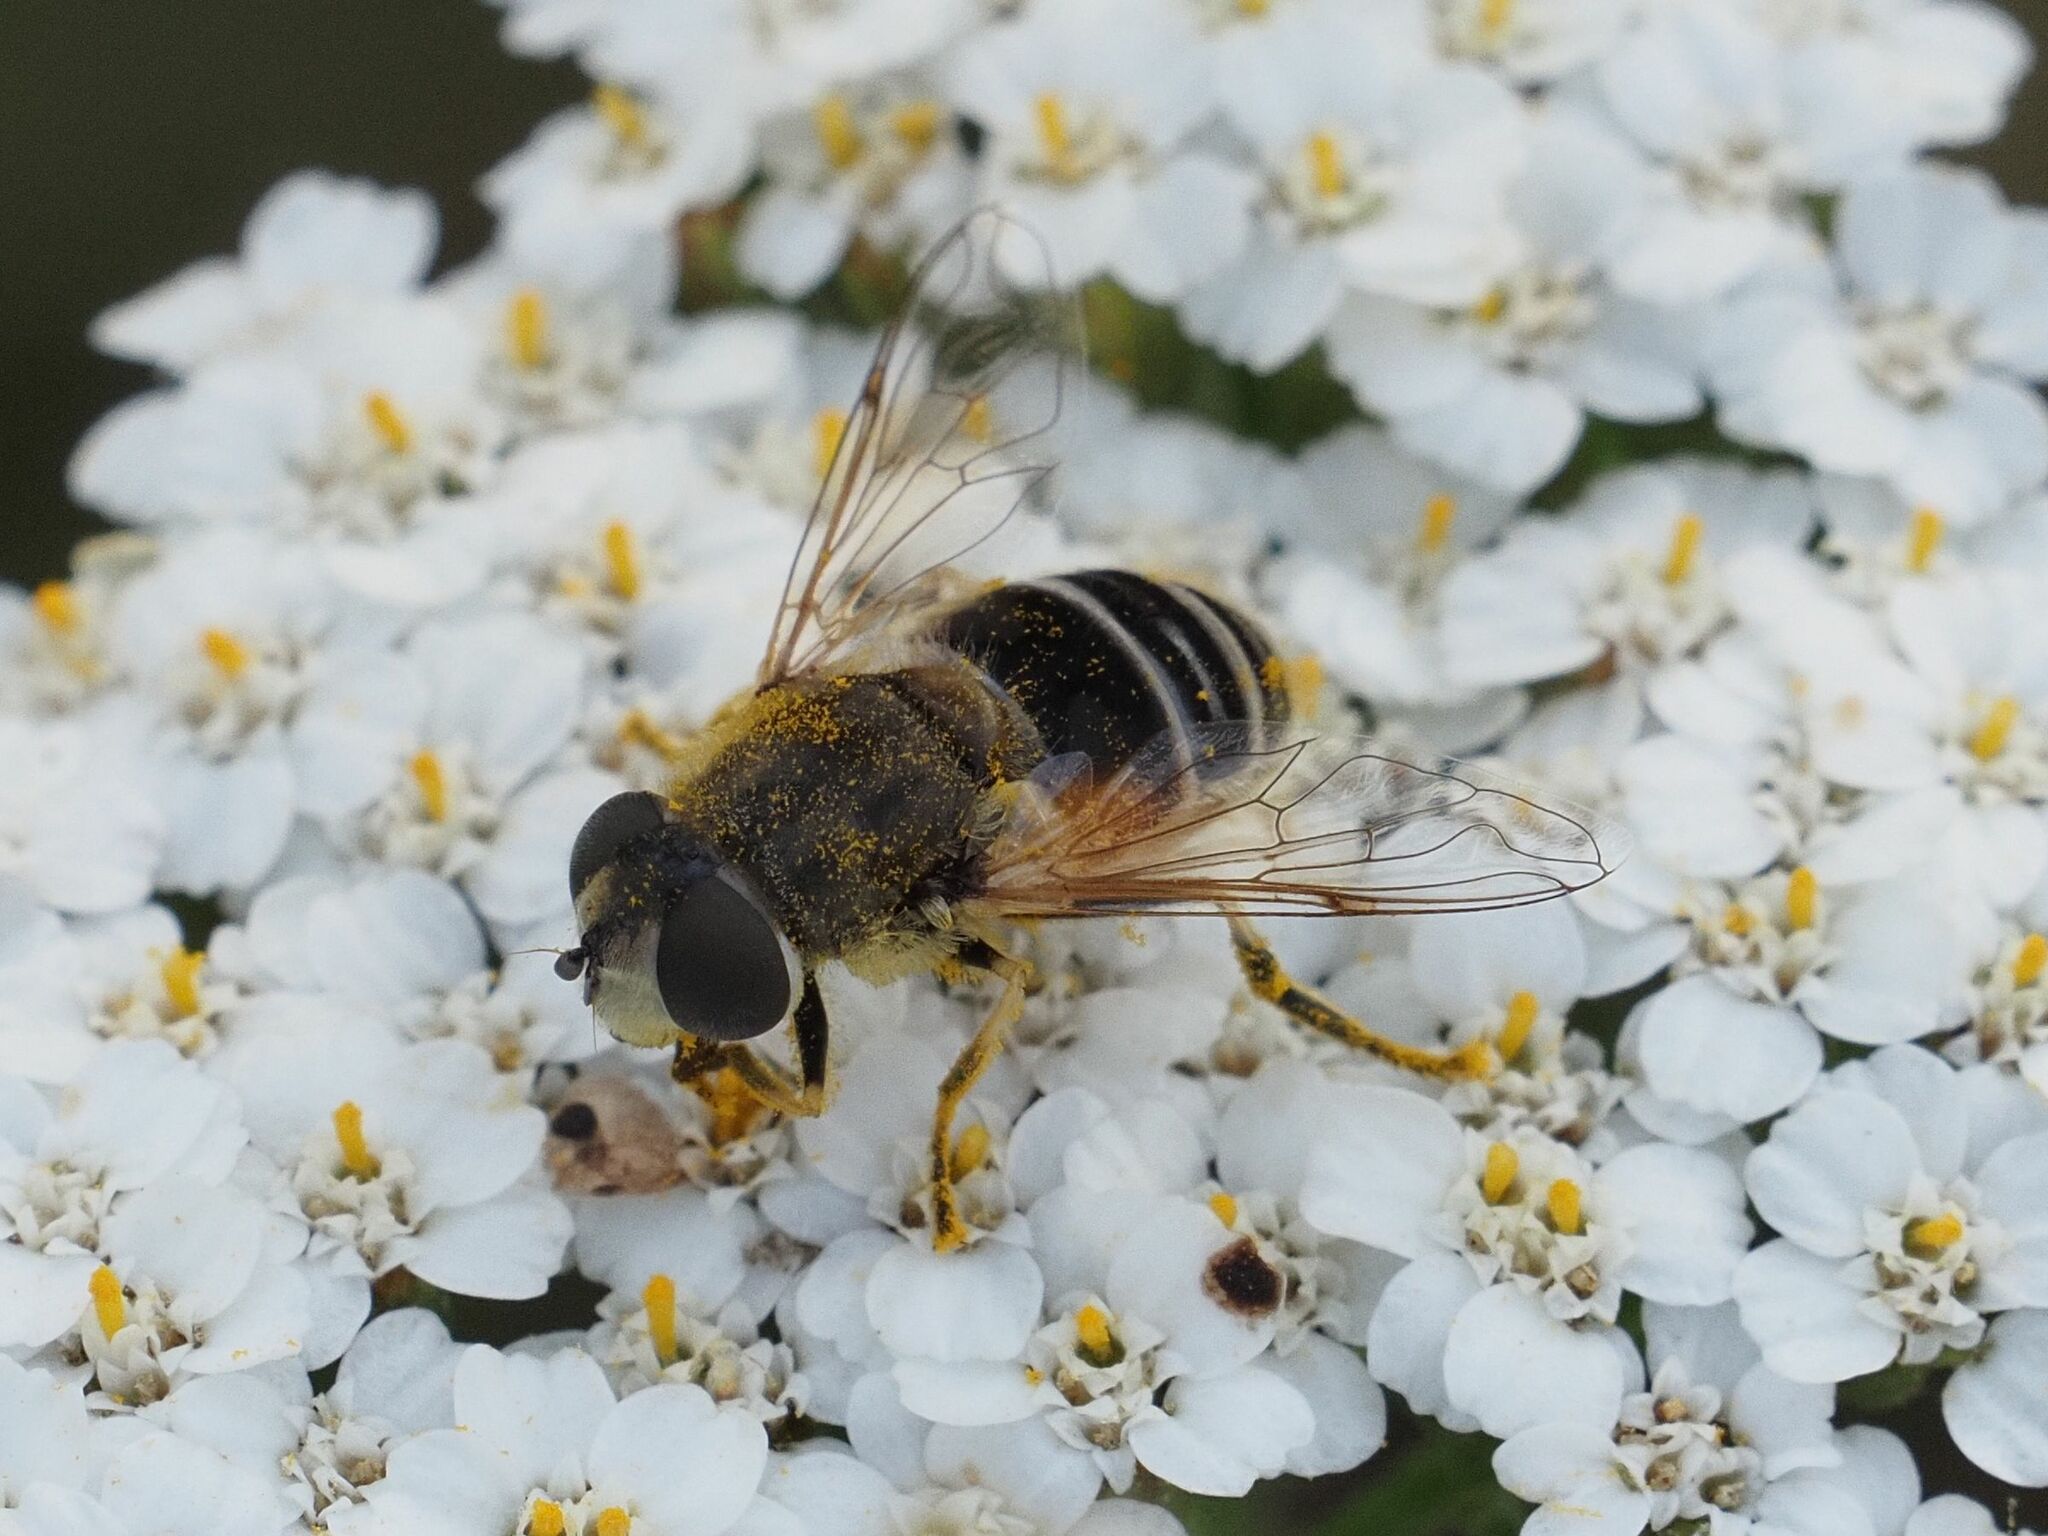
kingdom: Animalia
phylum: Arthropoda
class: Insecta
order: Diptera
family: Syrphidae
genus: Eristalis
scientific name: Eristalis arbustorum
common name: Hover fly
